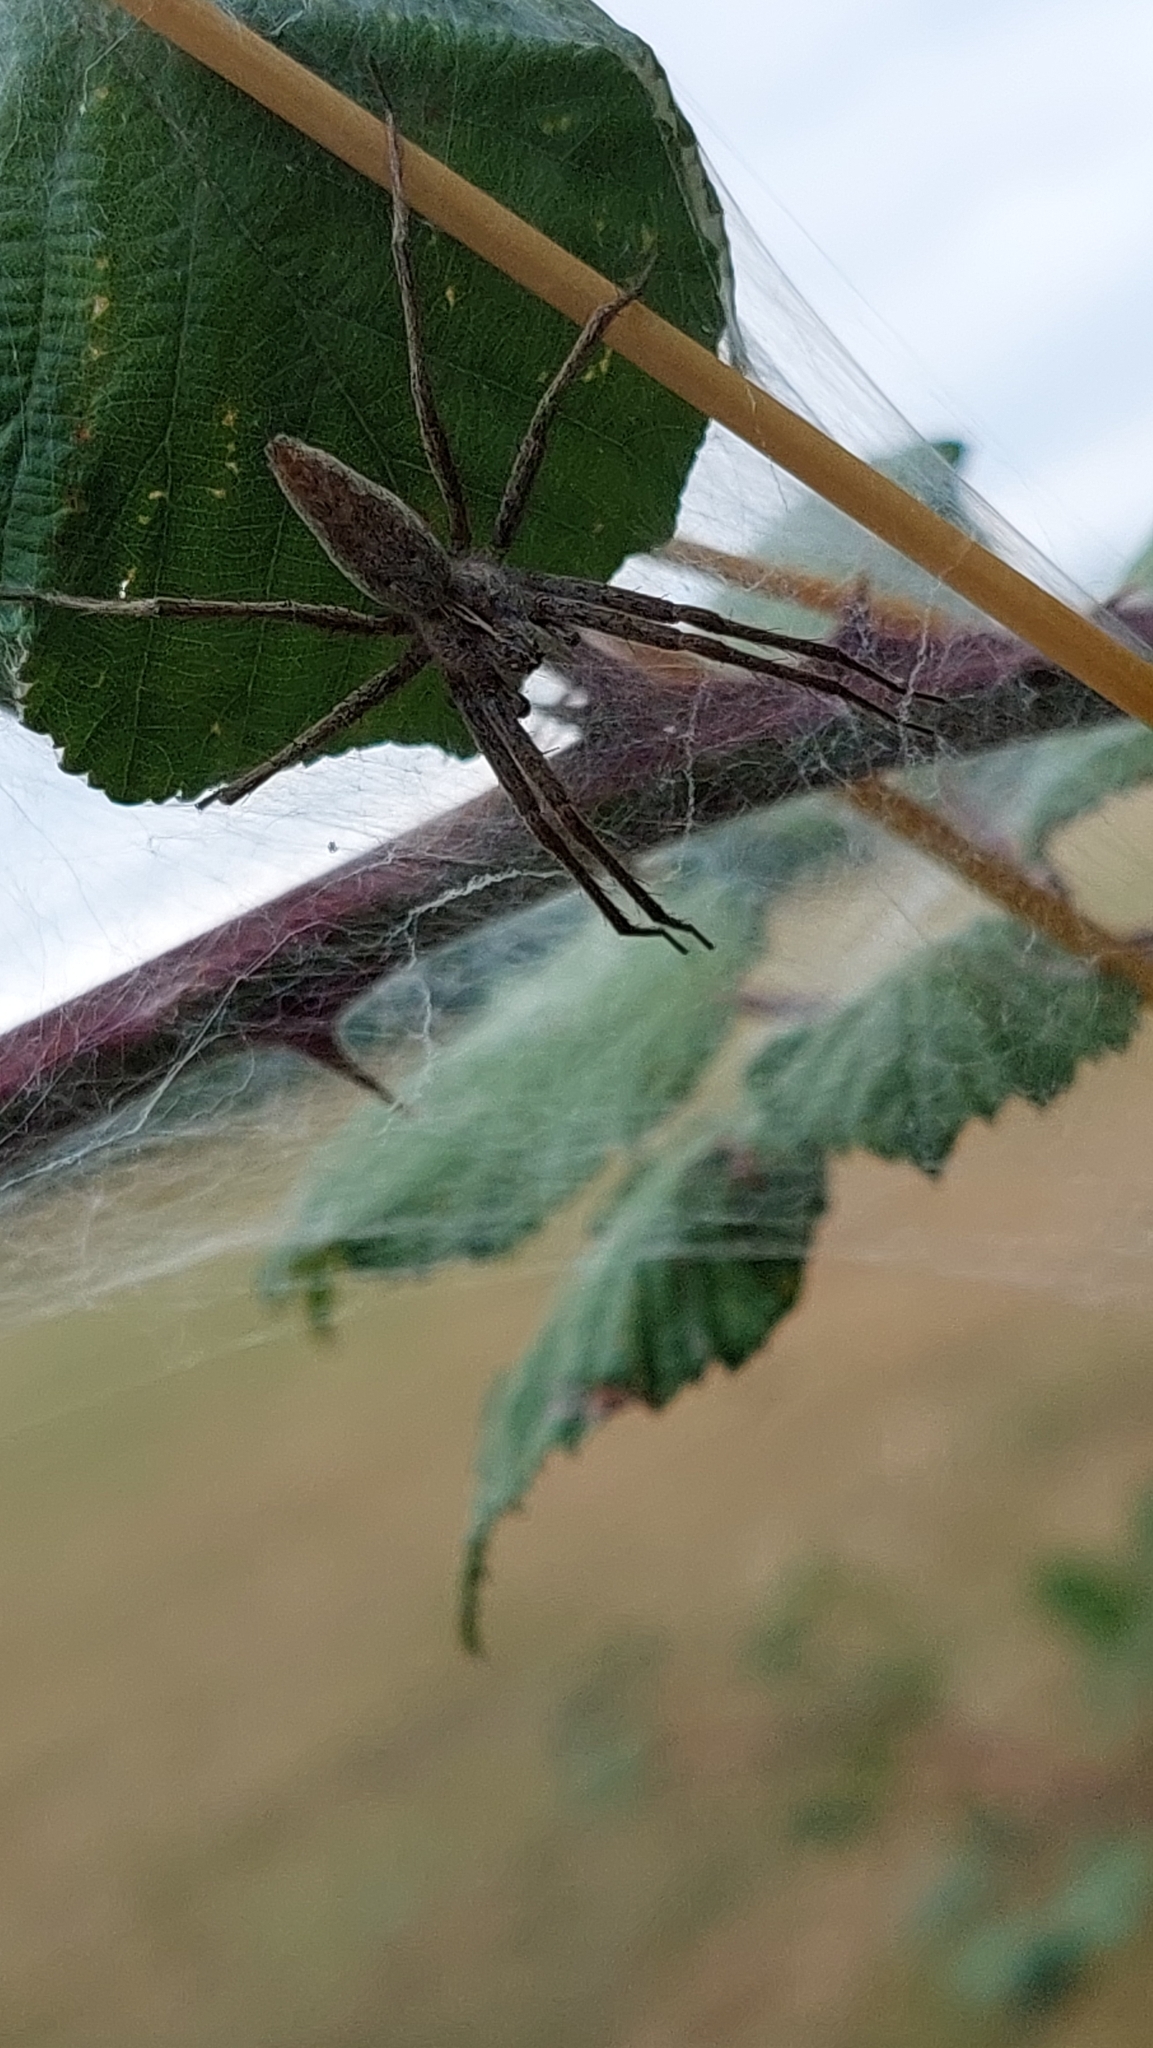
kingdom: Animalia
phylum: Arthropoda
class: Arachnida
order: Araneae
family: Pisauridae
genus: Pisaura
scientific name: Pisaura mirabilis
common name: Tent spider
